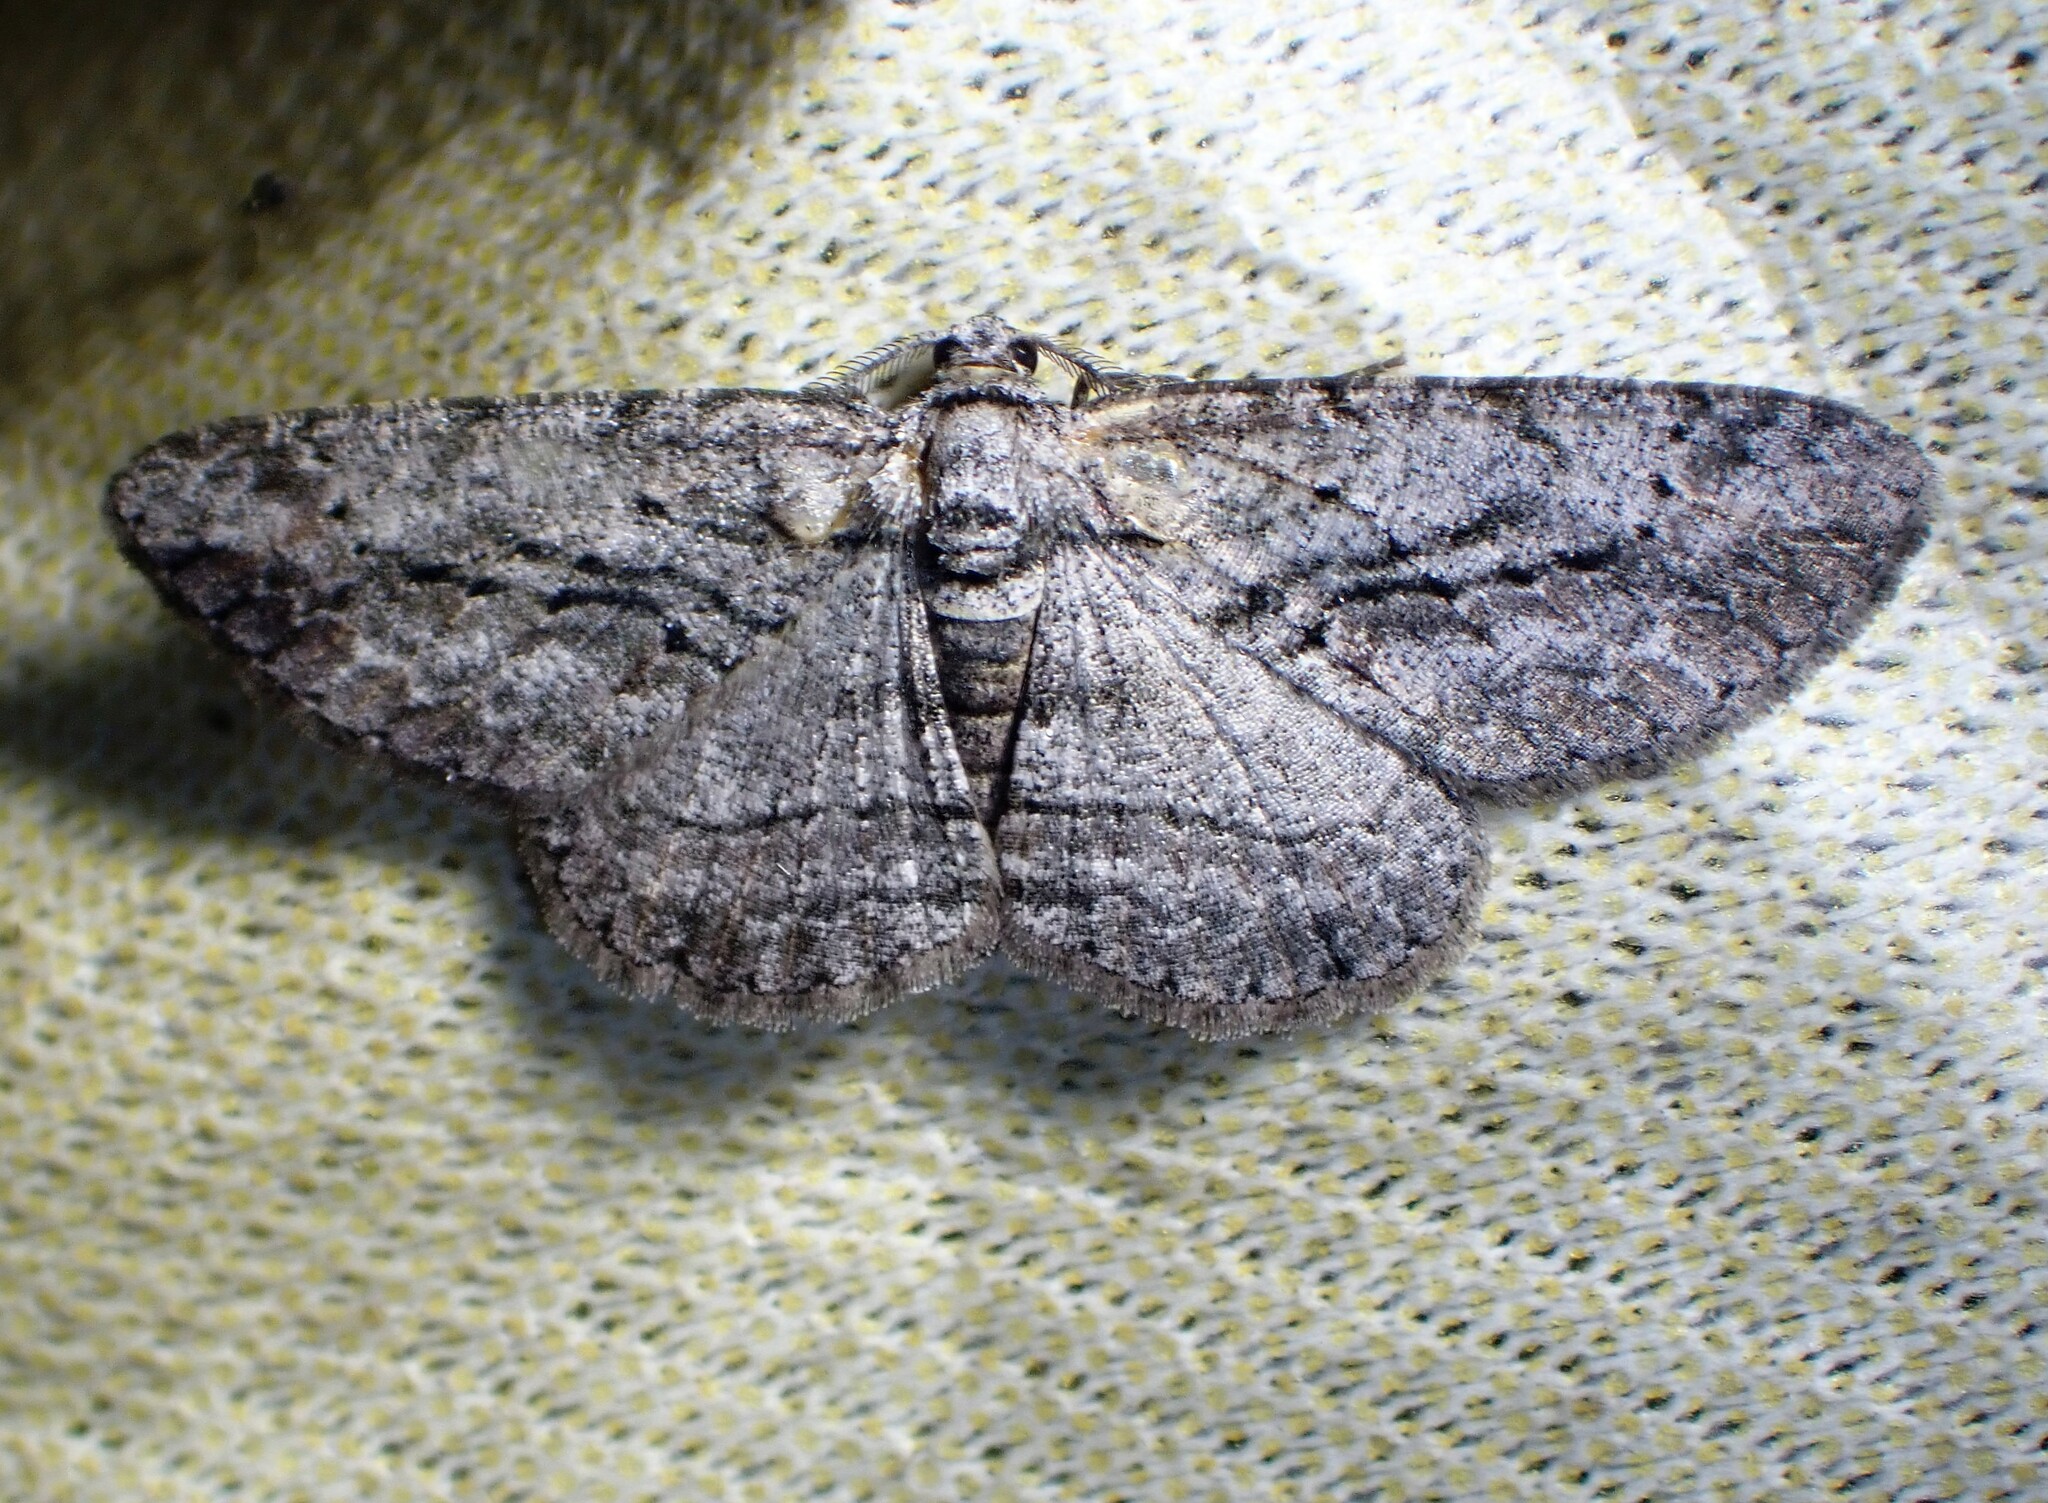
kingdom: Animalia
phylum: Arthropoda
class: Insecta
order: Lepidoptera
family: Geometridae
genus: Anavitrinella
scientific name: Anavitrinella pampinaria
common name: Common gray
